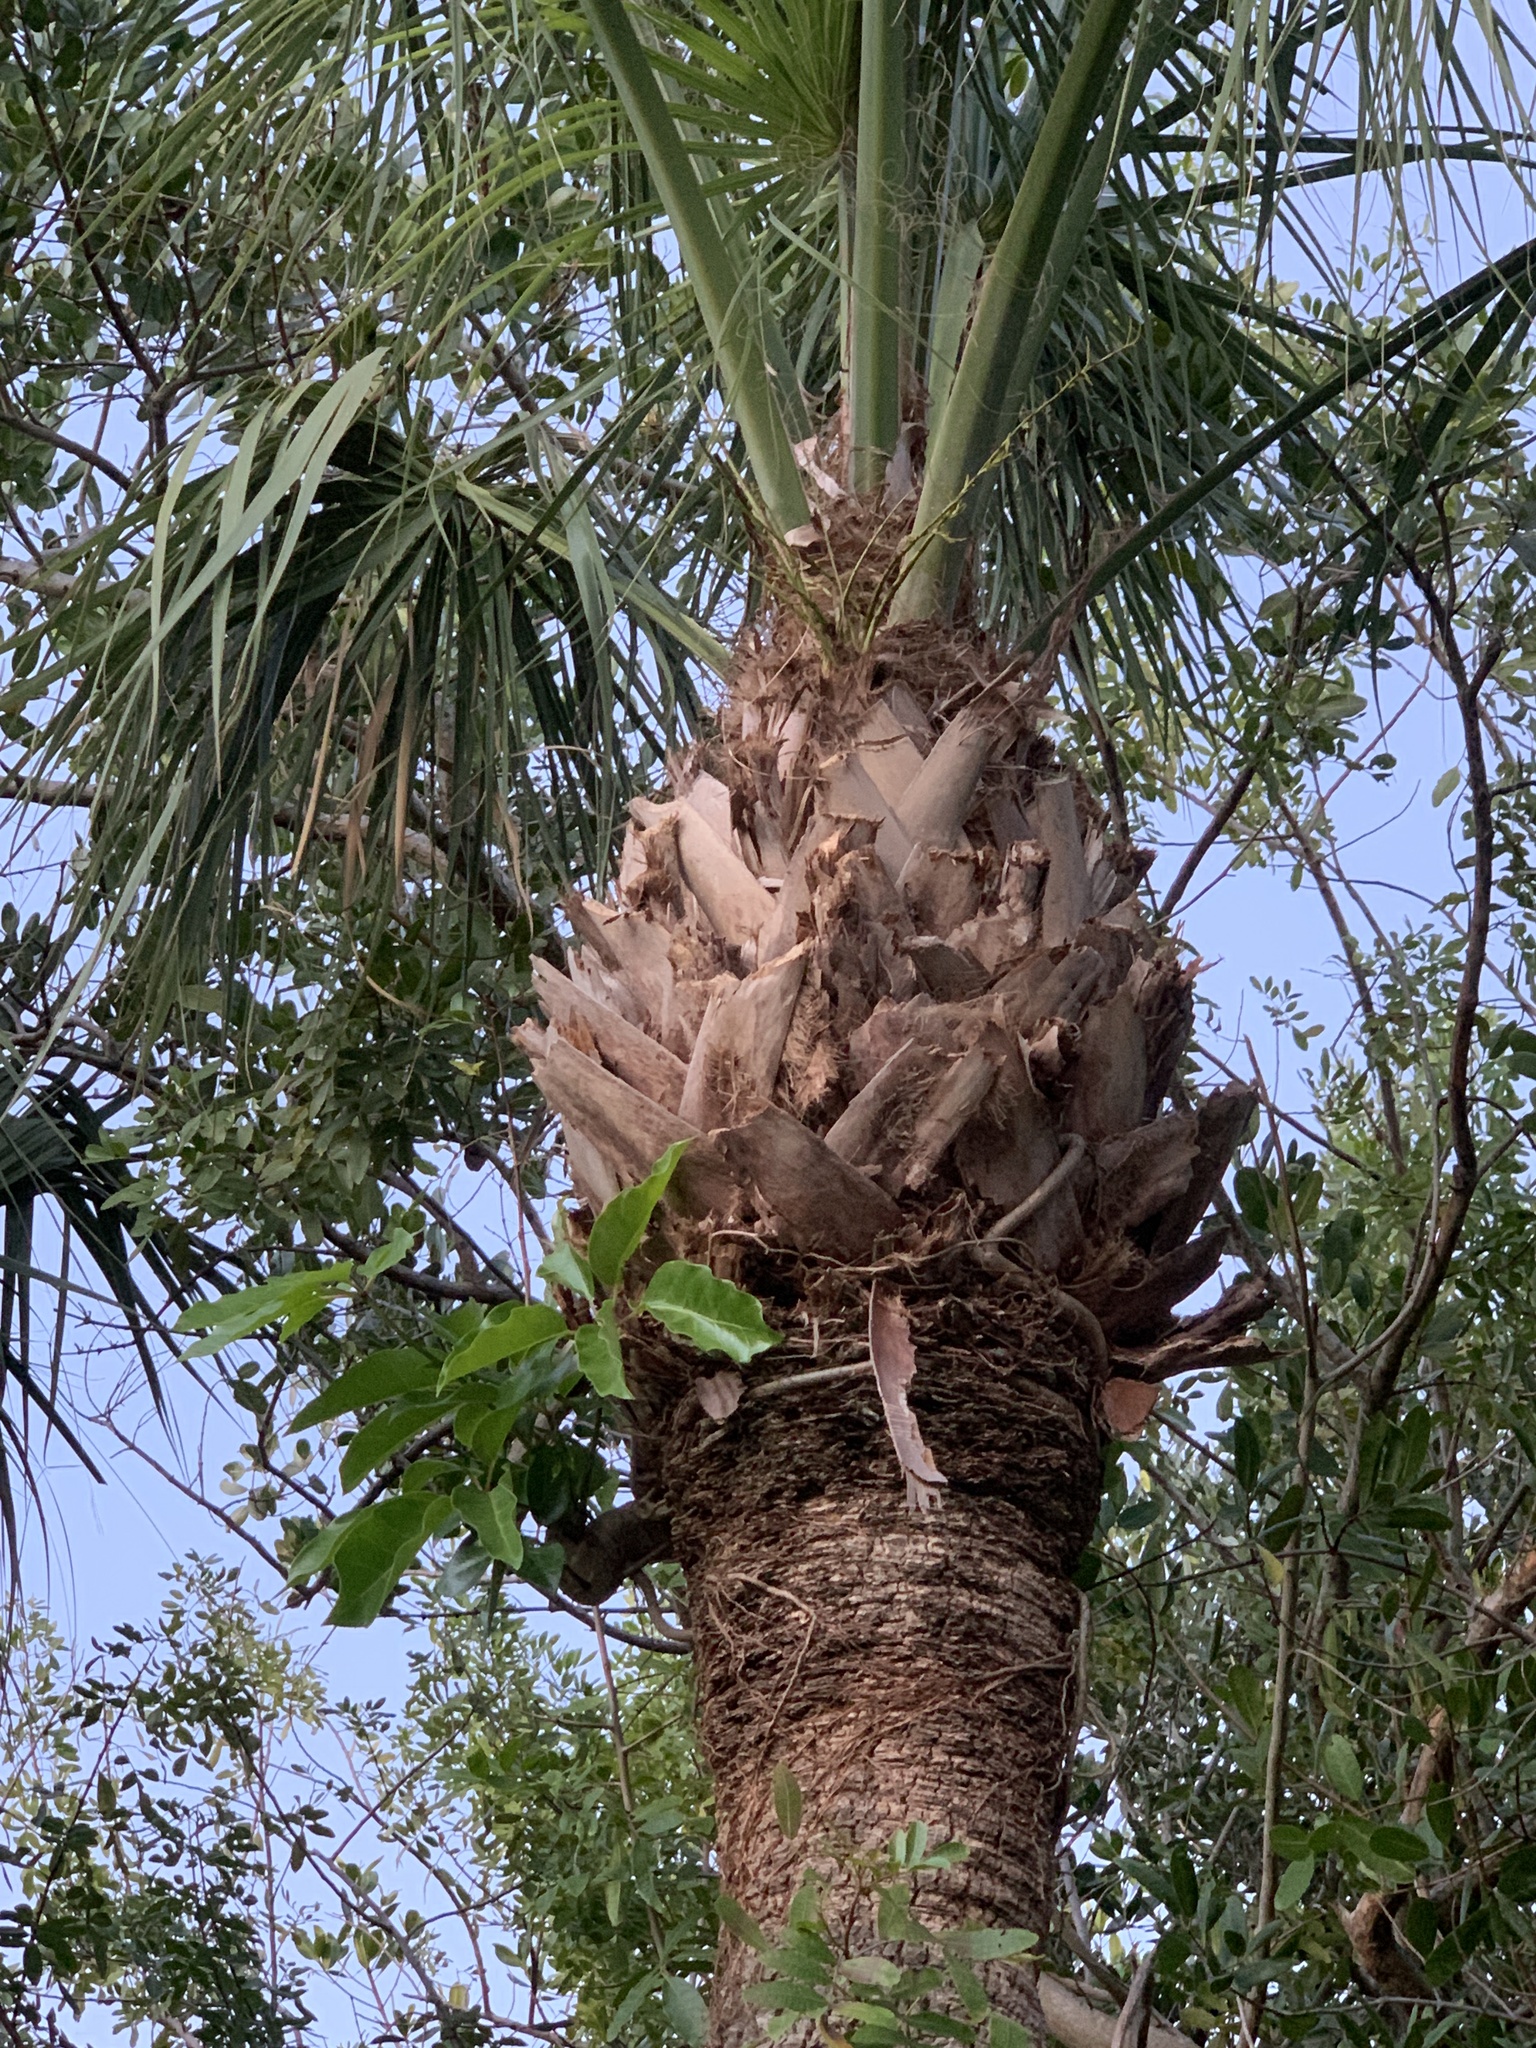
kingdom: Plantae
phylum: Tracheophyta
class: Magnoliopsida
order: Apiales
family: Araliaceae
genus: Heptapleurum
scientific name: Heptapleurum actinophyllum
